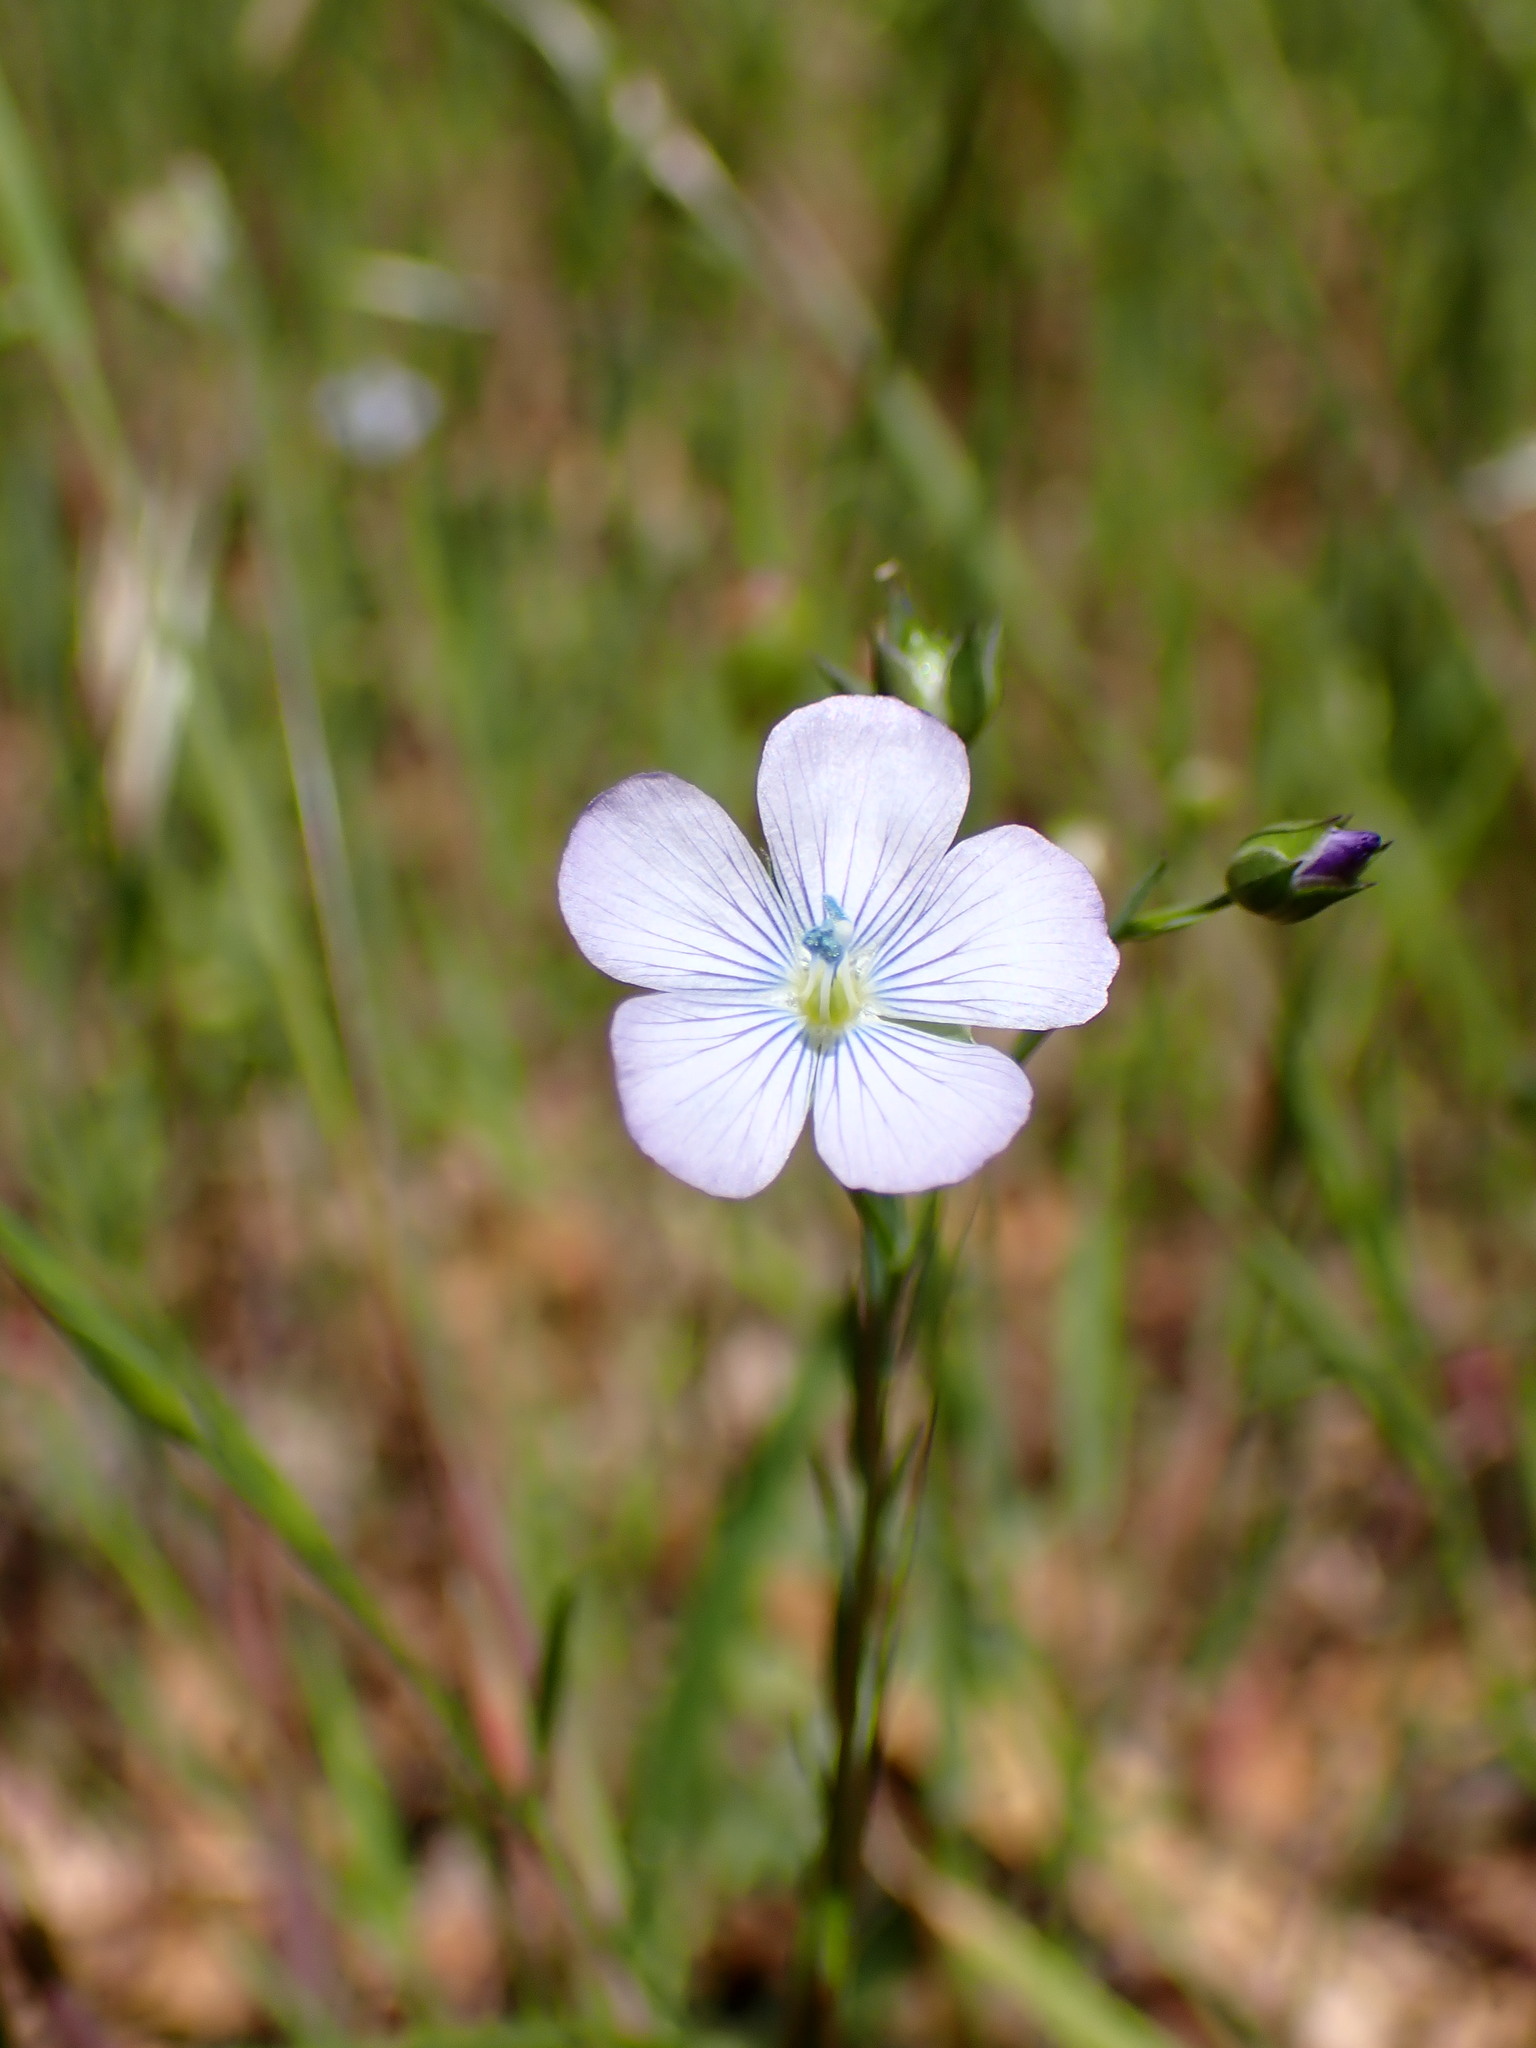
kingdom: Plantae
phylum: Tracheophyta
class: Magnoliopsida
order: Malpighiales
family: Linaceae
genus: Linum
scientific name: Linum bienne
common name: Pale flax
